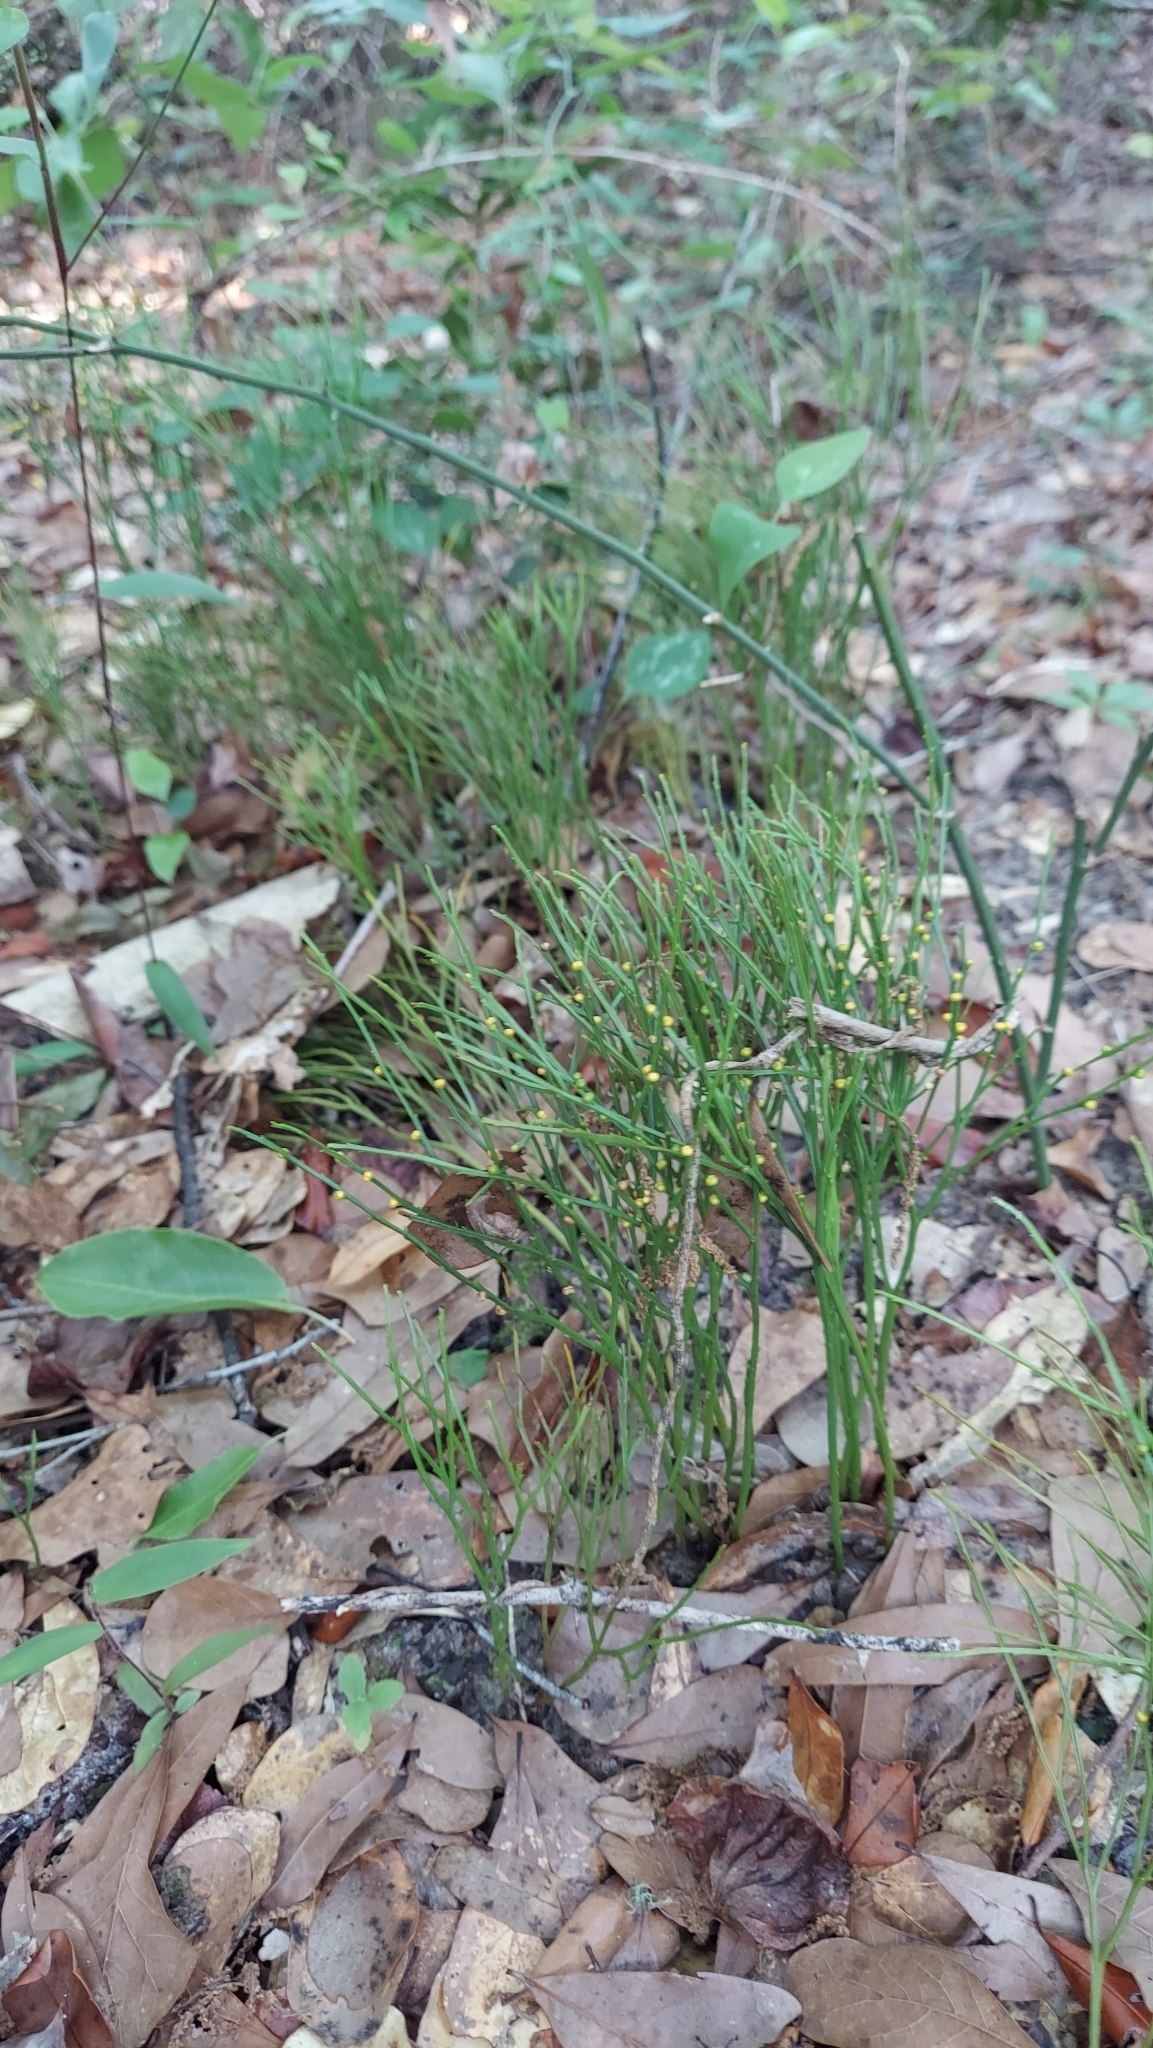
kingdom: Plantae
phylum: Tracheophyta
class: Polypodiopsida
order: Psilotales
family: Psilotaceae
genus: Psilotum
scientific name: Psilotum nudum
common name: Skeleton fork fern
